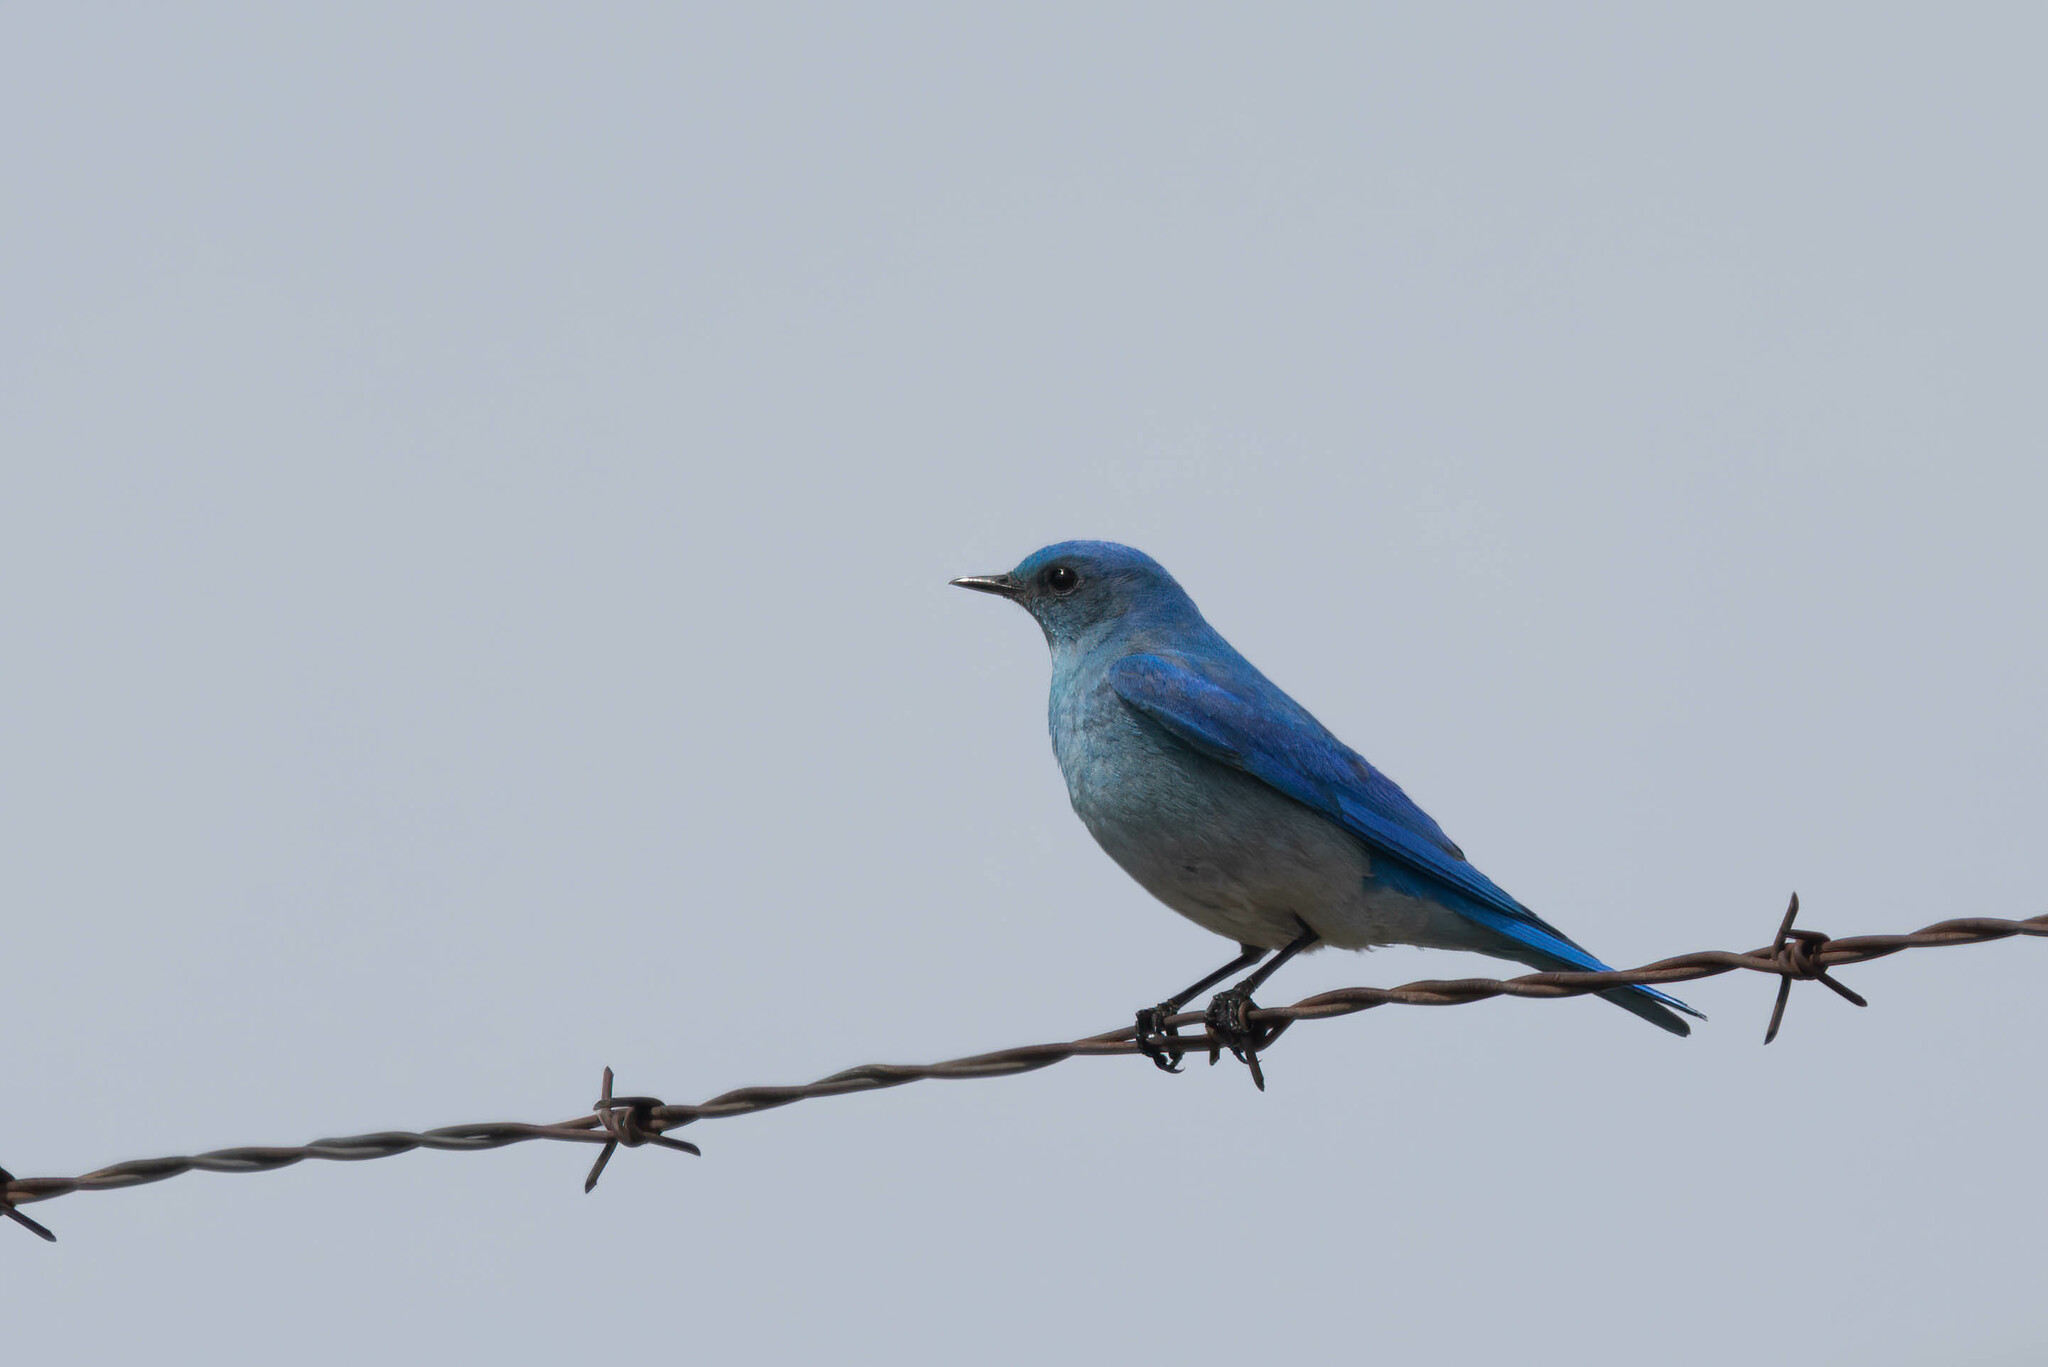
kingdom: Animalia
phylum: Chordata
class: Aves
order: Passeriformes
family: Turdidae
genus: Sialia
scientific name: Sialia currucoides
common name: Mountain bluebird
